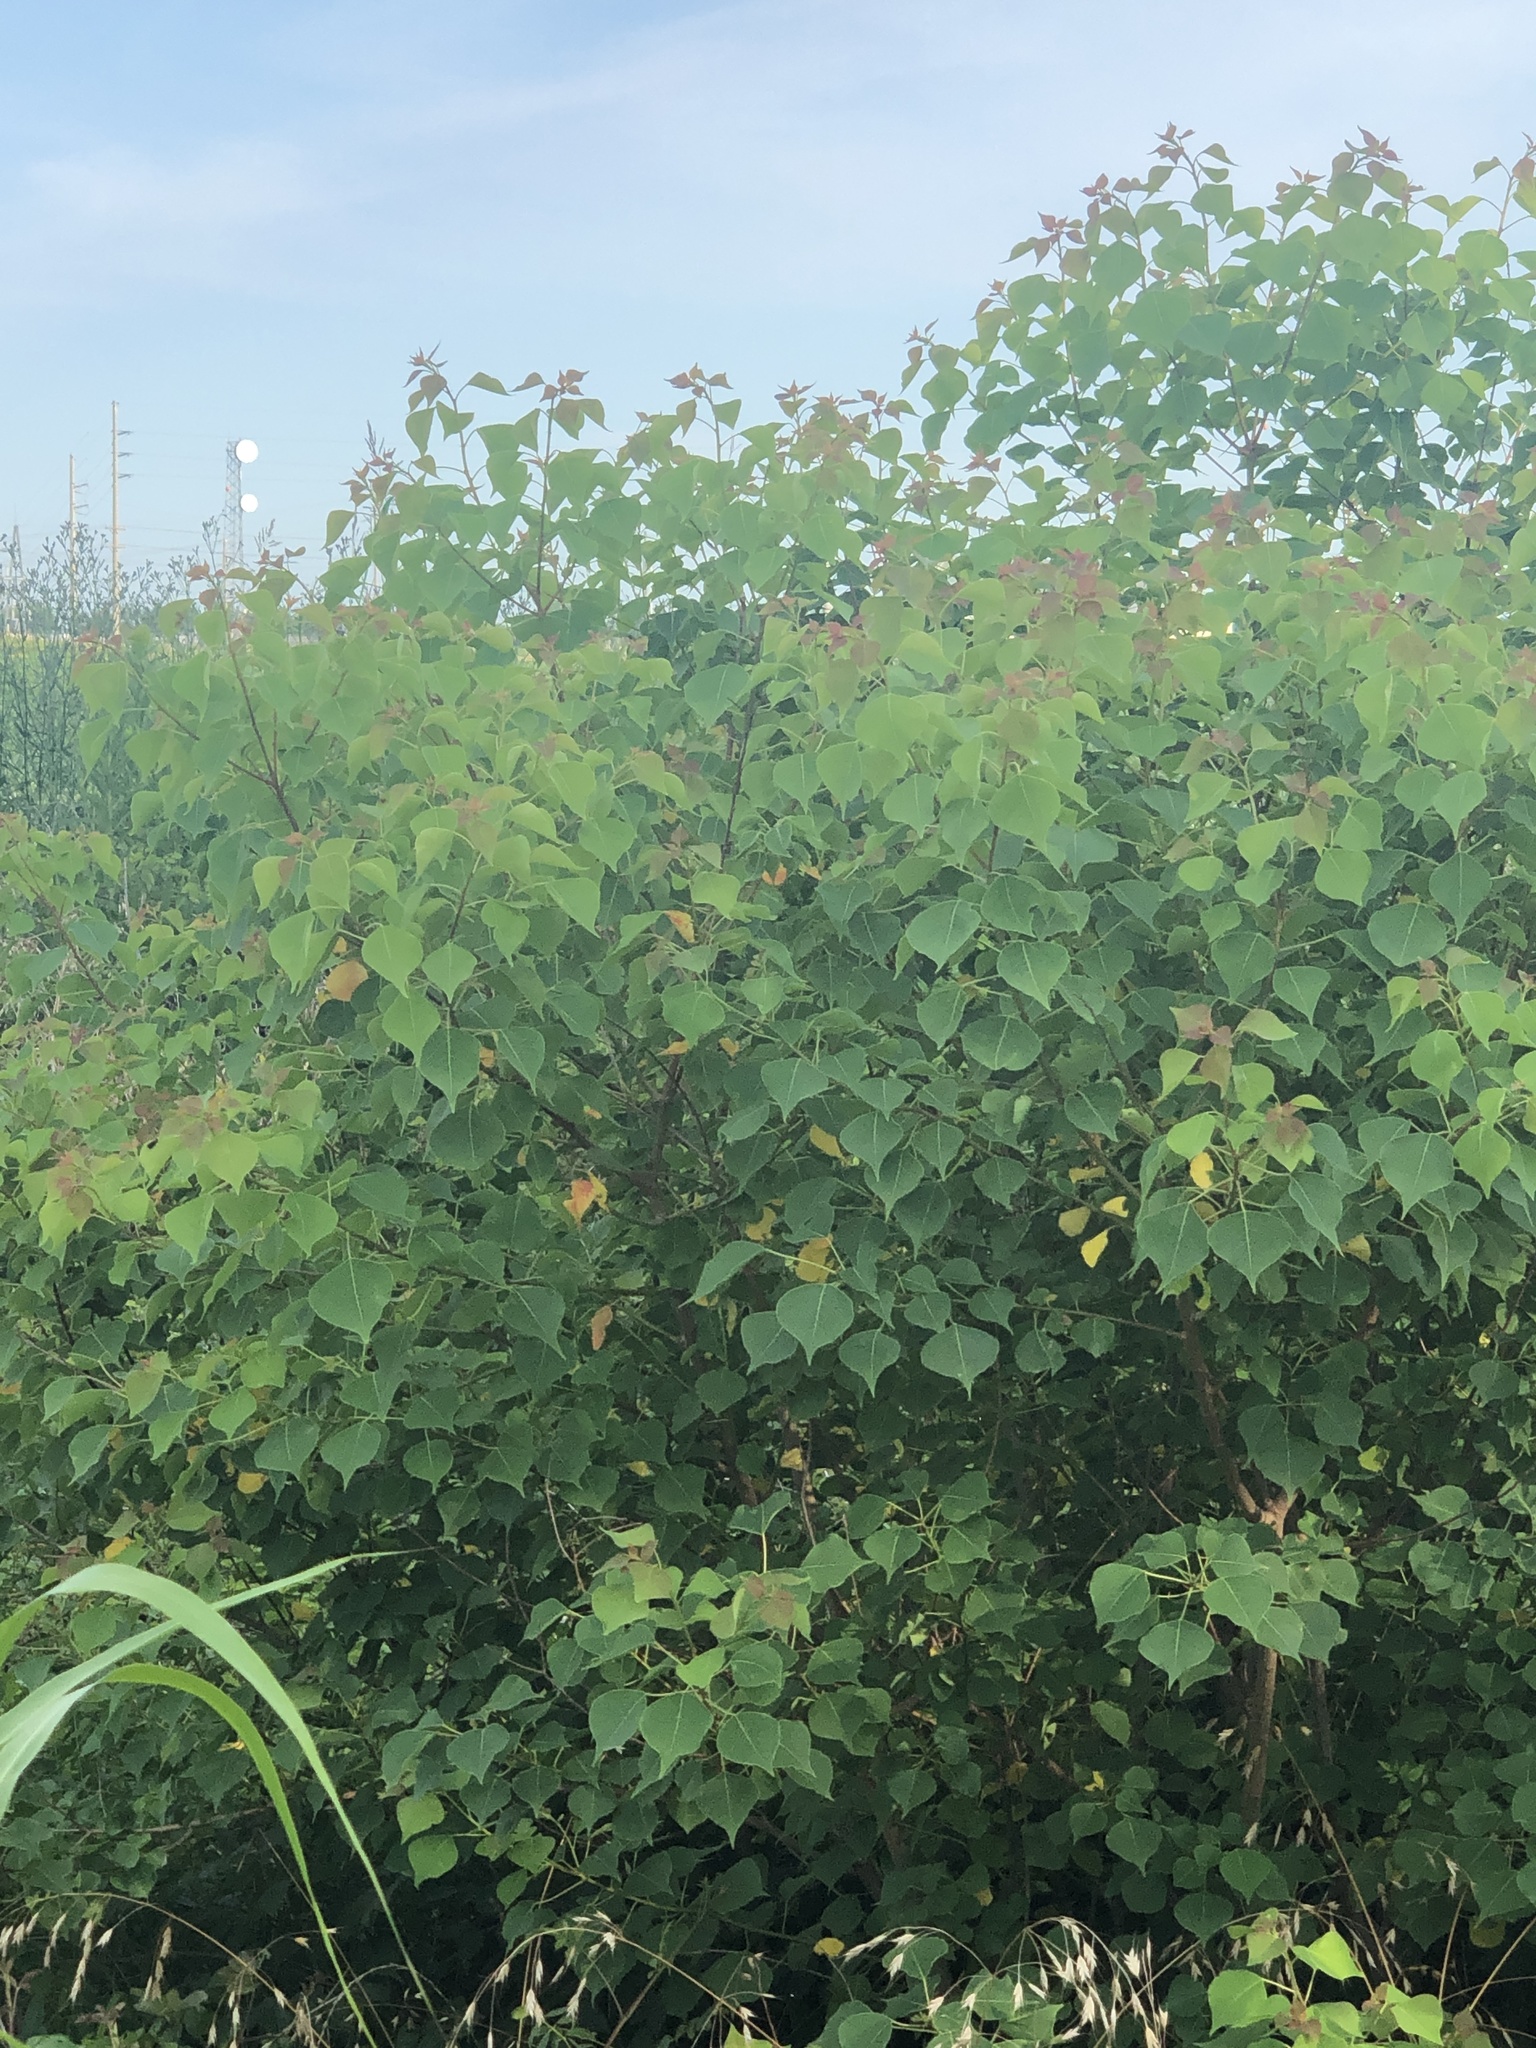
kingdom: Plantae
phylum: Tracheophyta
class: Magnoliopsida
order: Malpighiales
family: Euphorbiaceae
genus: Triadica
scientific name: Triadica sebifera
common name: Chinese tallow
